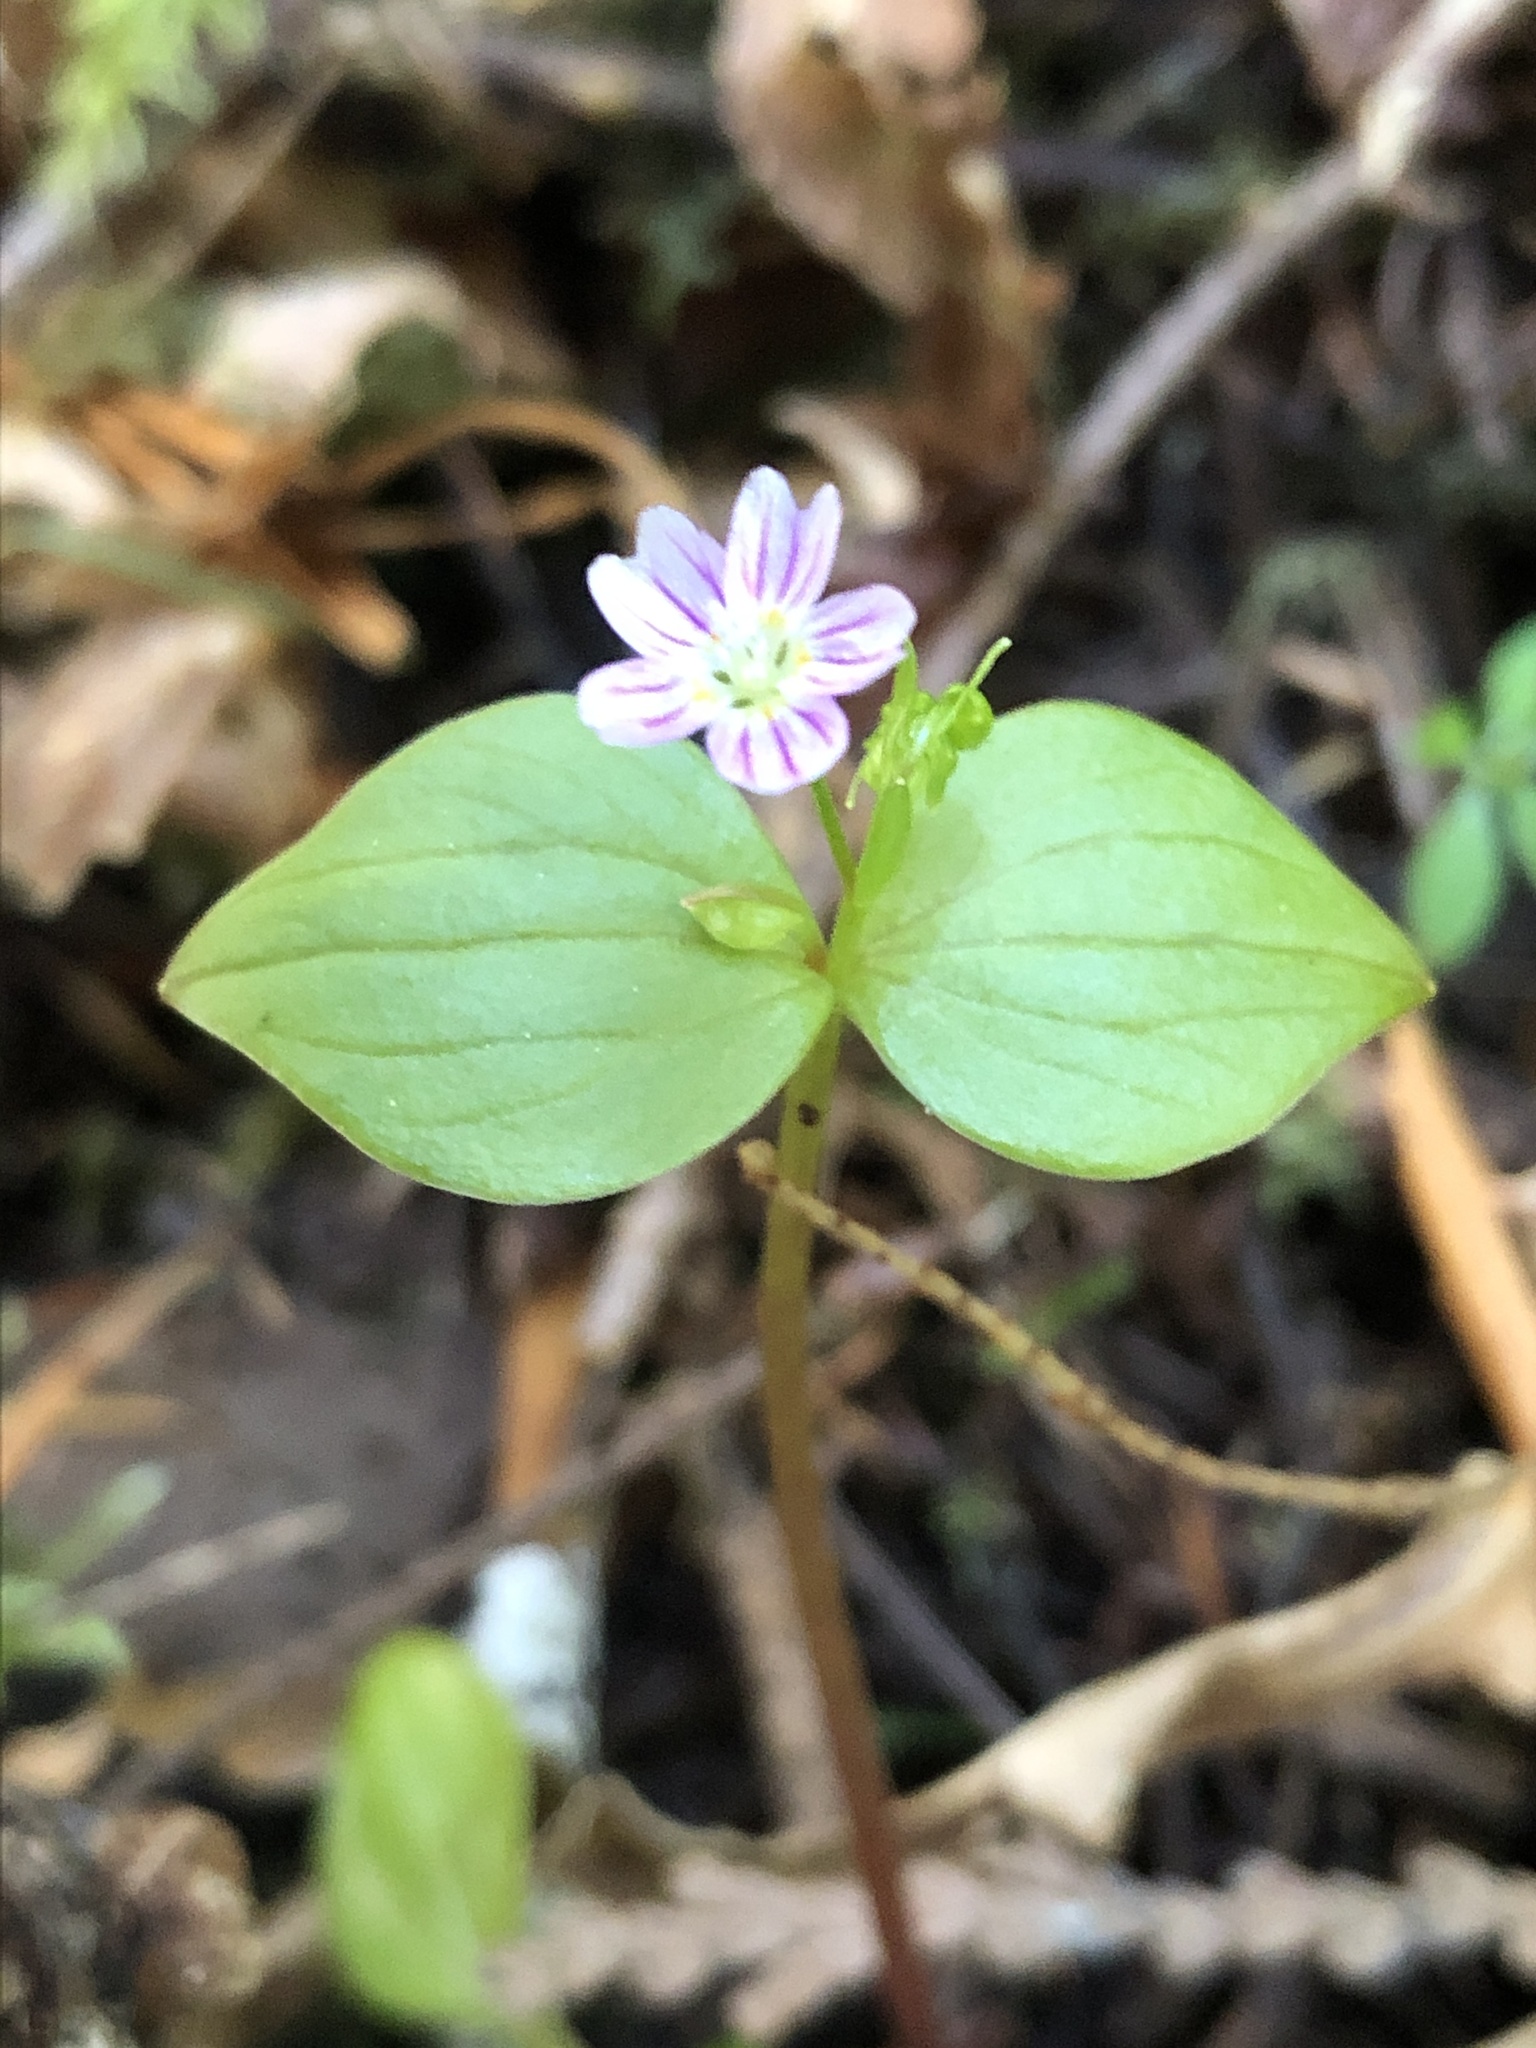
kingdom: Plantae
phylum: Tracheophyta
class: Magnoliopsida
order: Caryophyllales
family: Montiaceae
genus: Claytonia
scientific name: Claytonia sibirica
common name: Pink purslane
